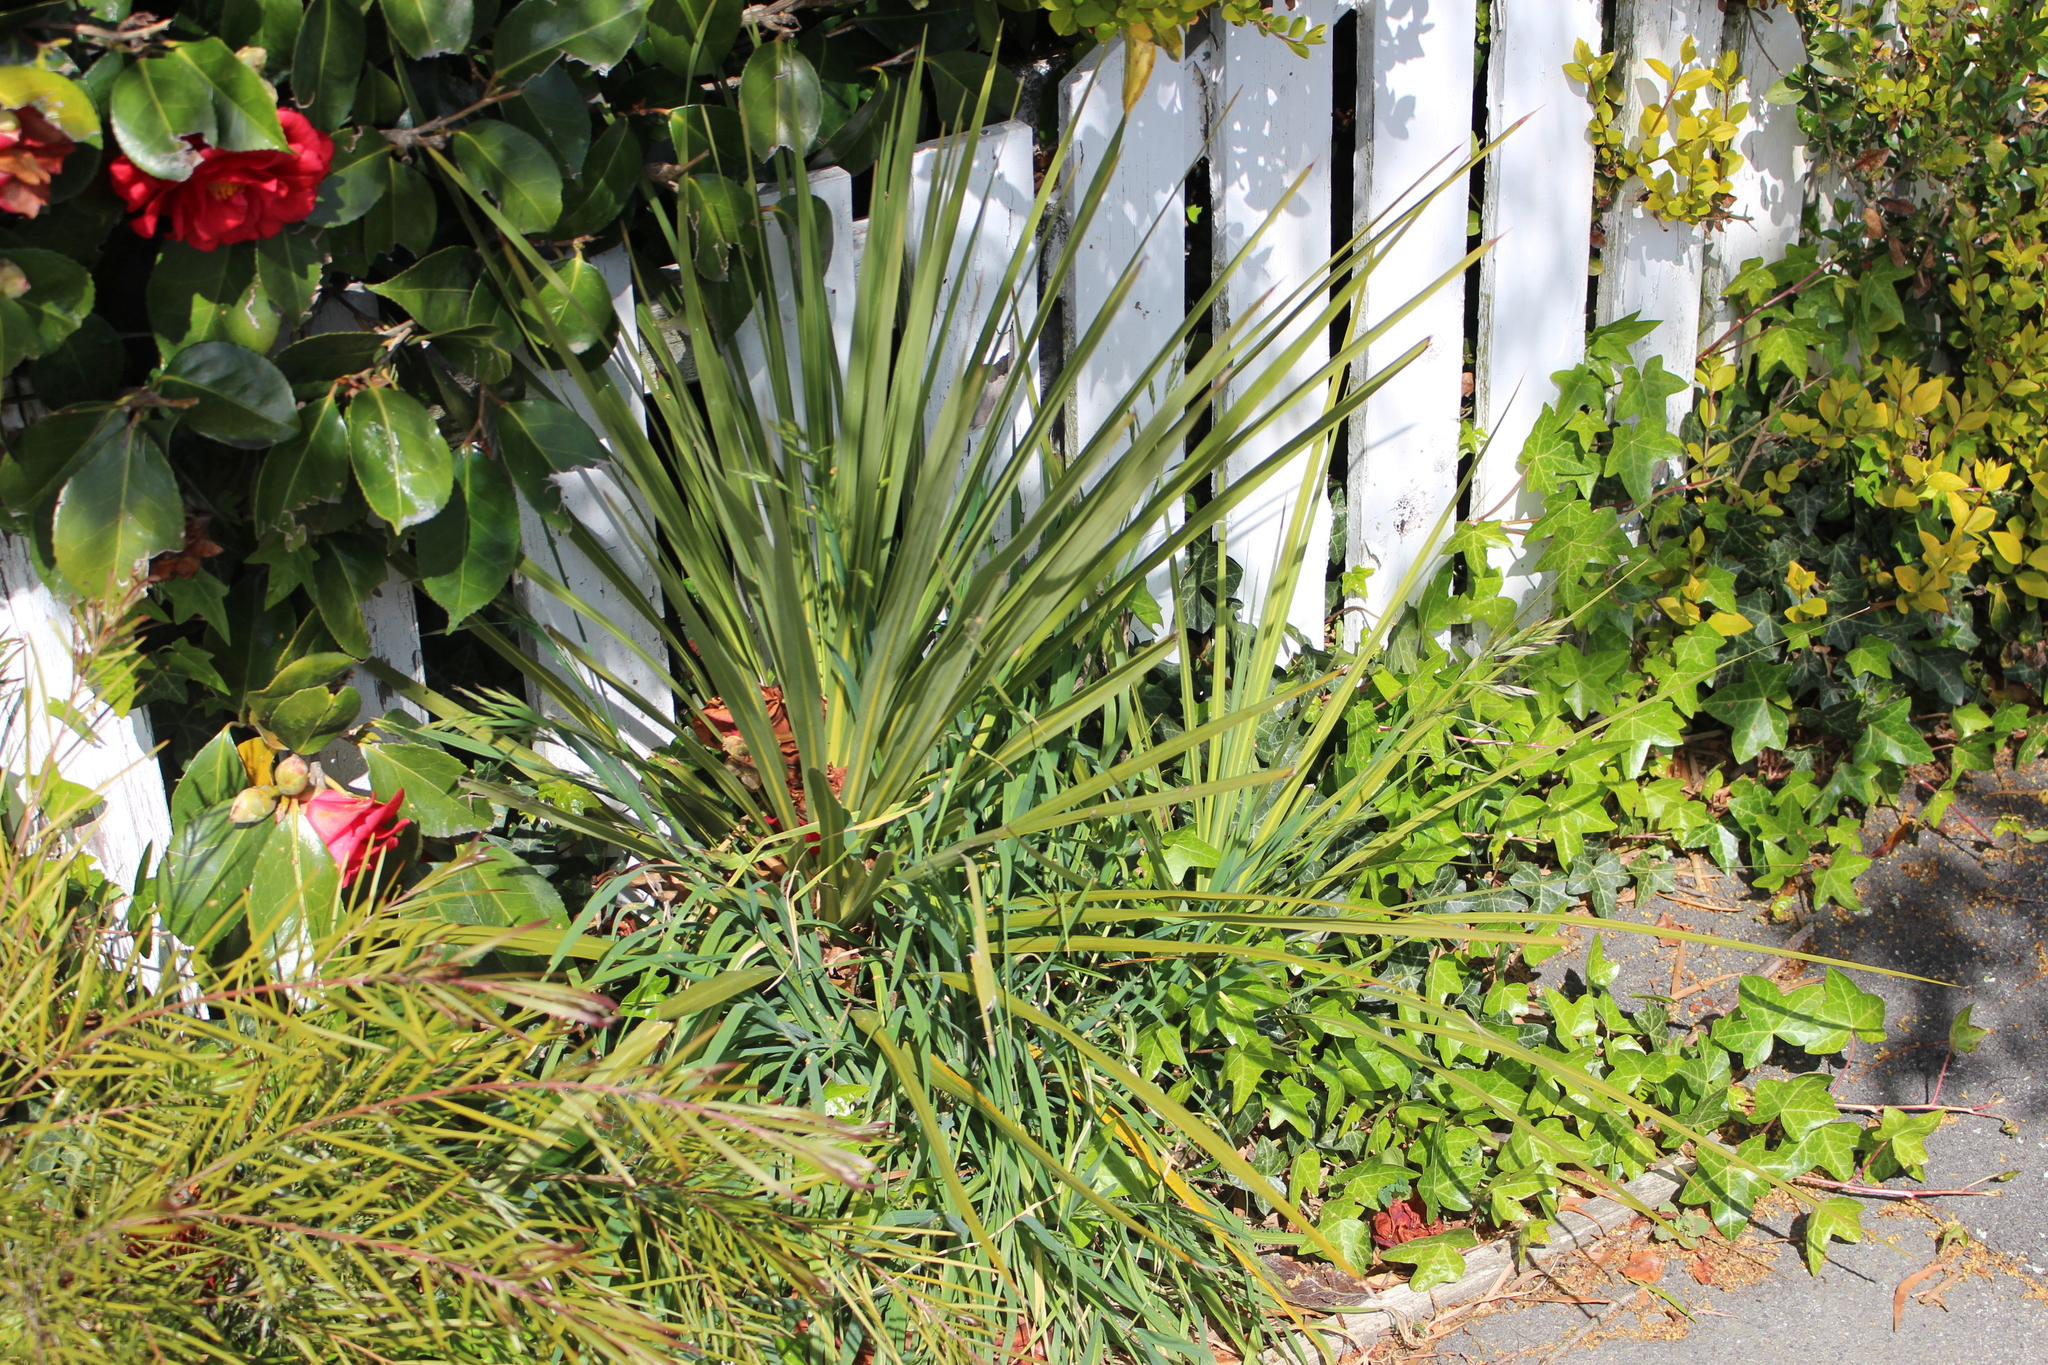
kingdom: Plantae
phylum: Tracheophyta
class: Liliopsida
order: Asparagales
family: Asparagaceae
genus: Cordyline
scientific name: Cordyline australis
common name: Cabbage-palm
